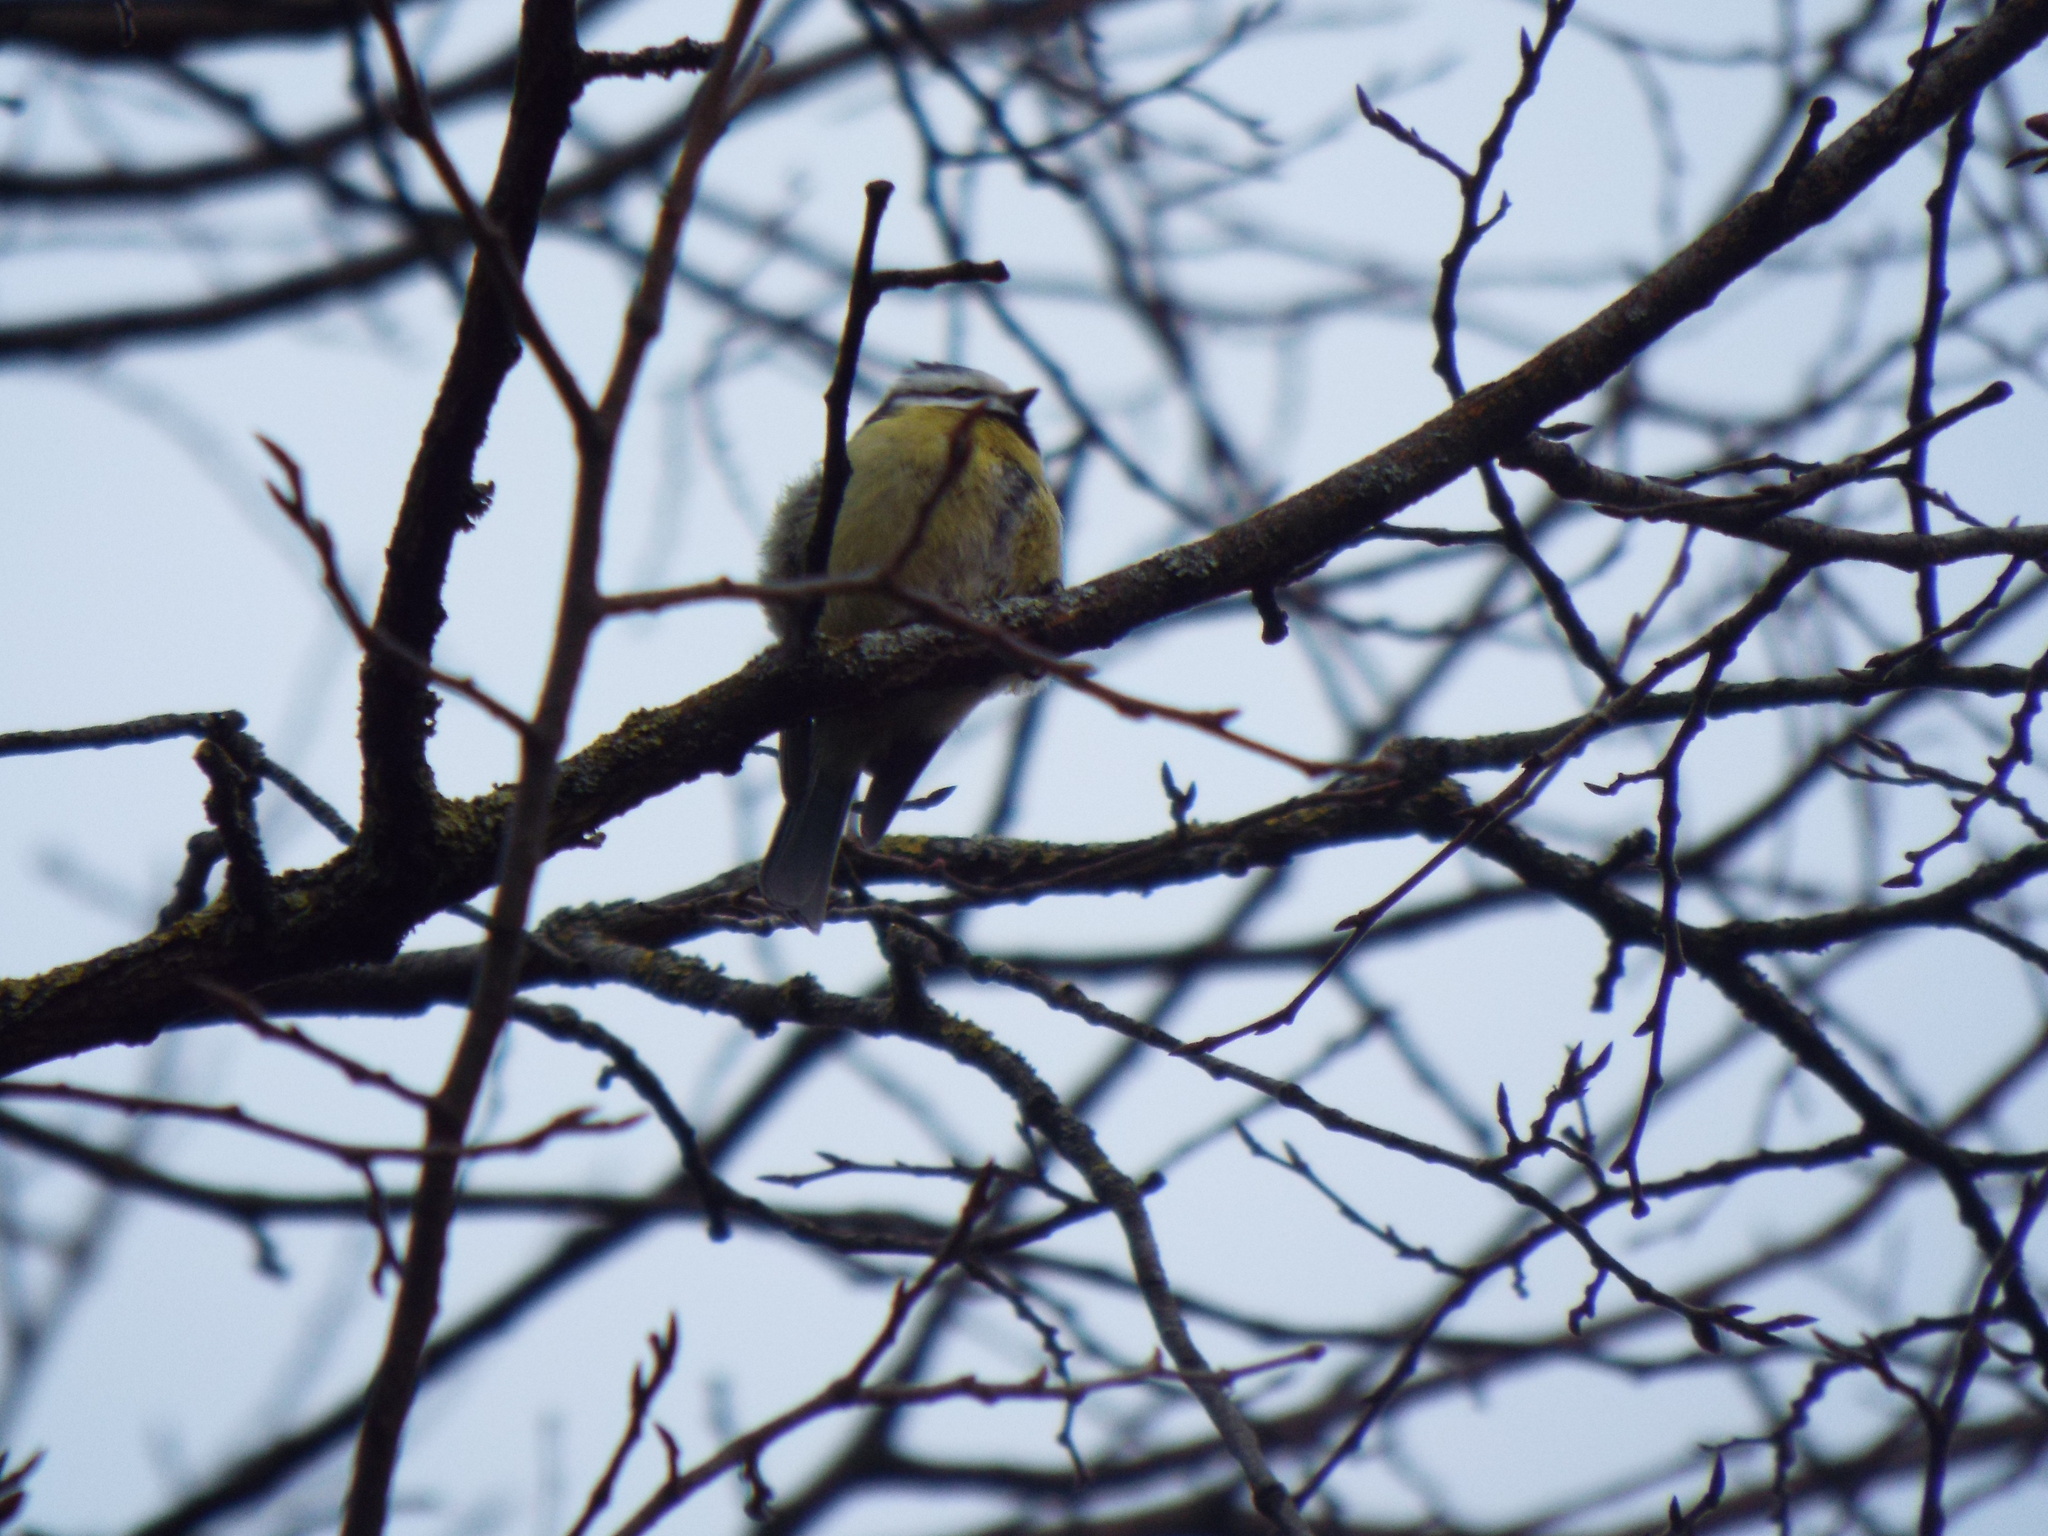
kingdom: Animalia
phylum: Chordata
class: Aves
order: Passeriformes
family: Paridae
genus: Cyanistes
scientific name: Cyanistes caeruleus
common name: Eurasian blue tit
